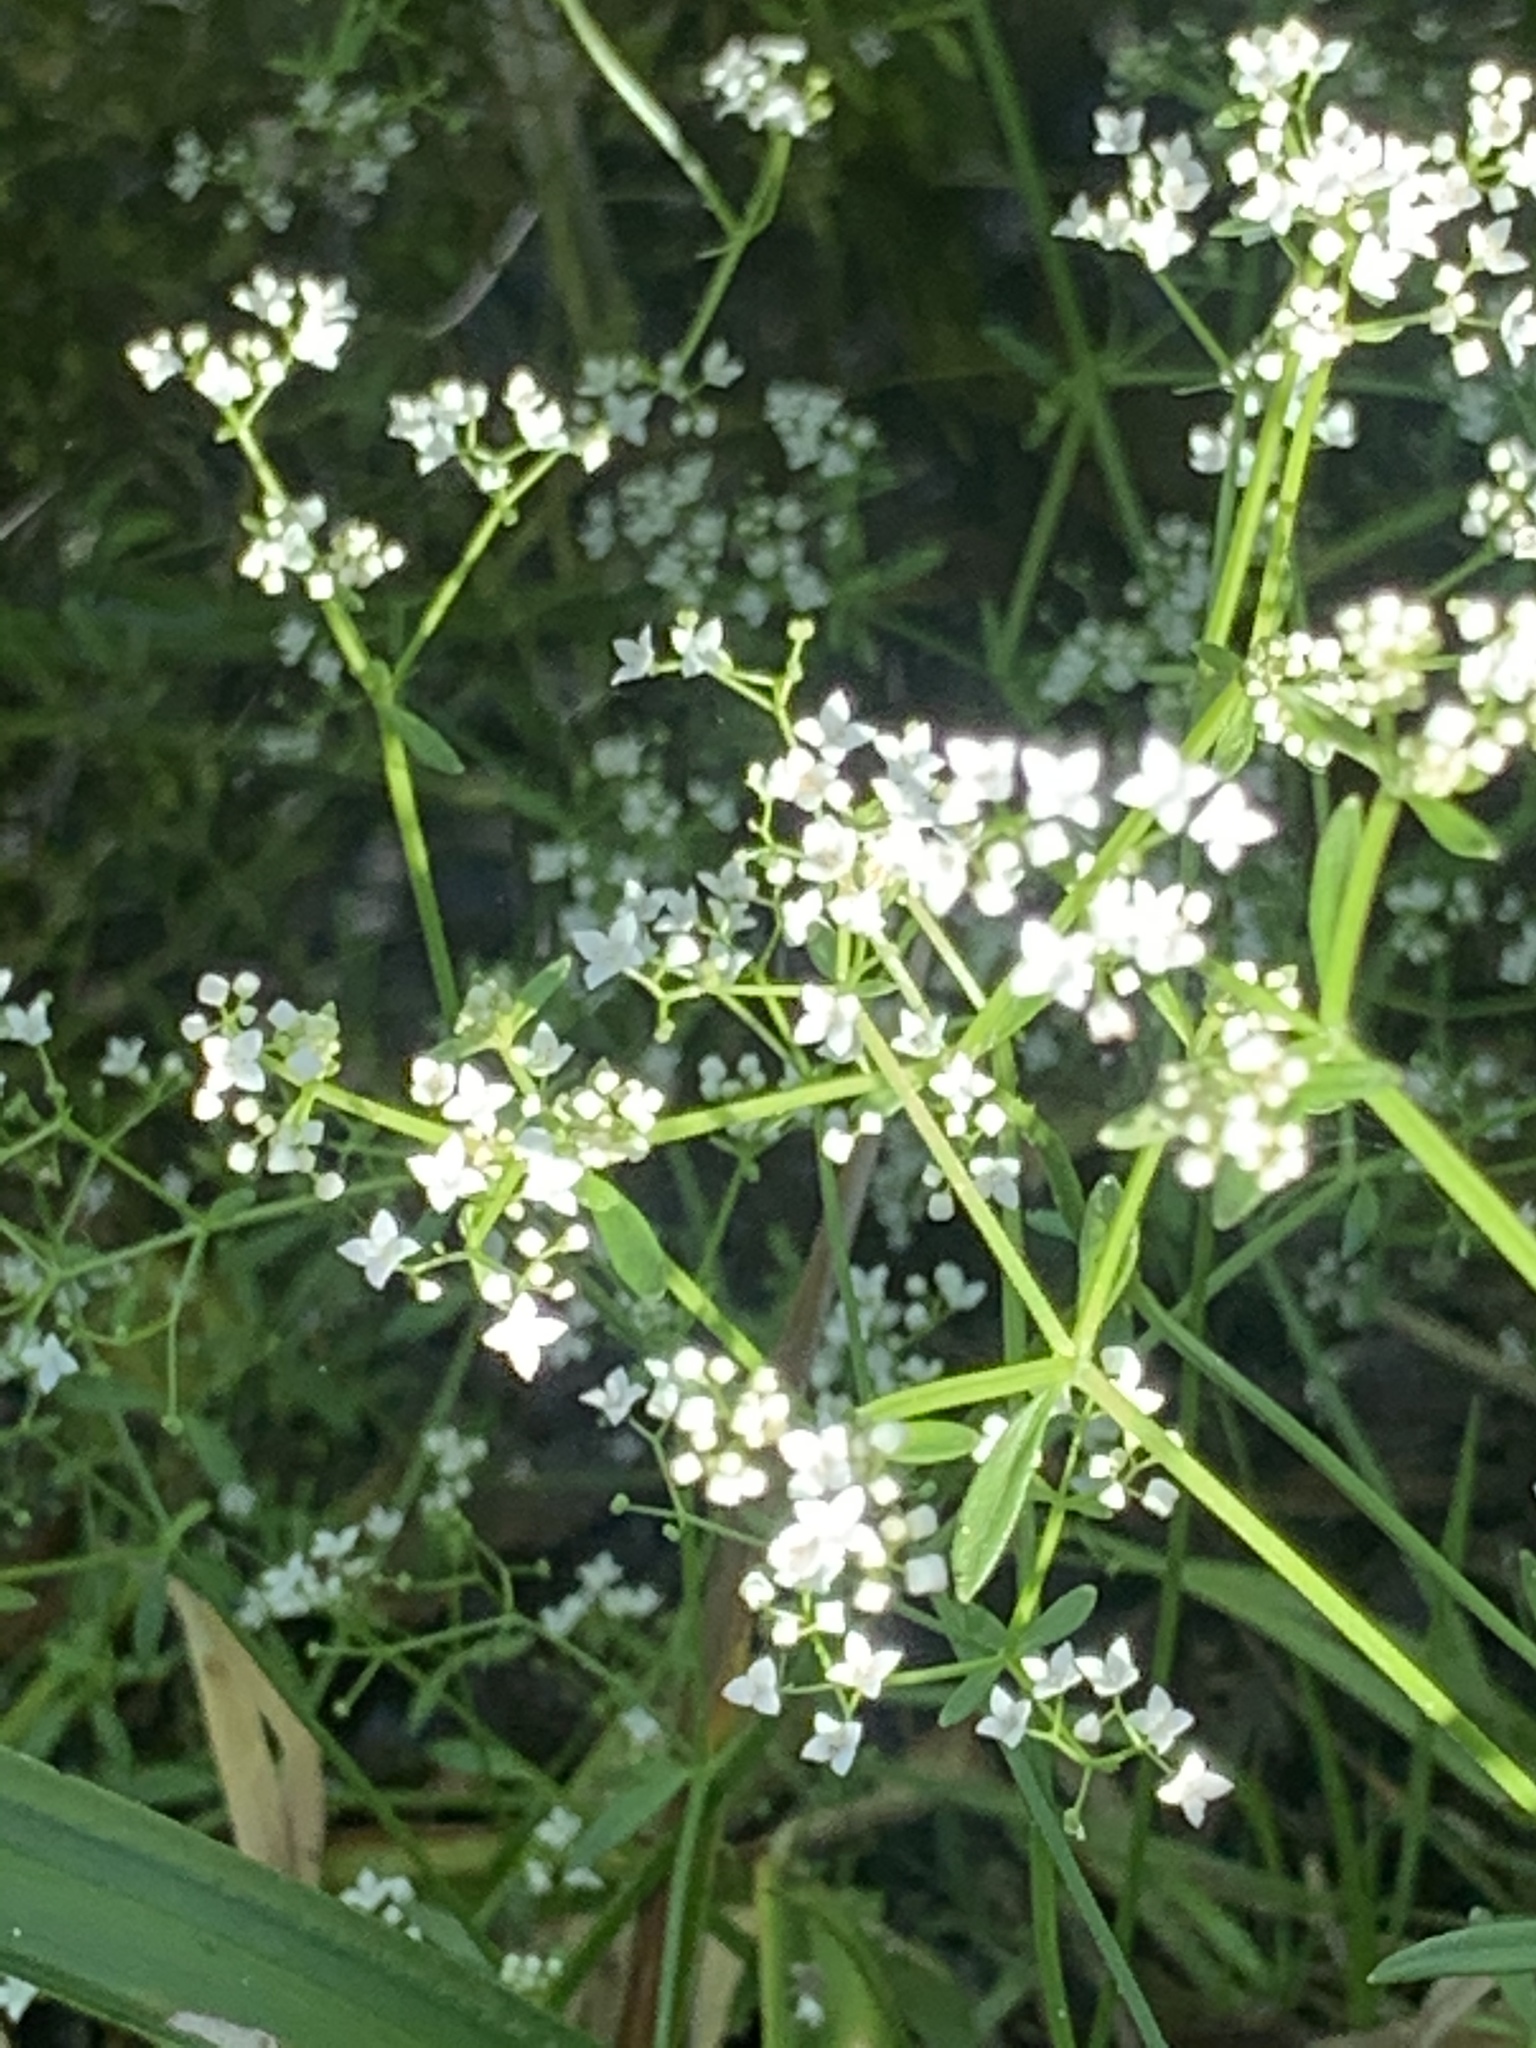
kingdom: Plantae
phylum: Tracheophyta
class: Magnoliopsida
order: Gentianales
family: Rubiaceae
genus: Galium
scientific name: Galium palustre
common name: Common marsh-bedstraw
